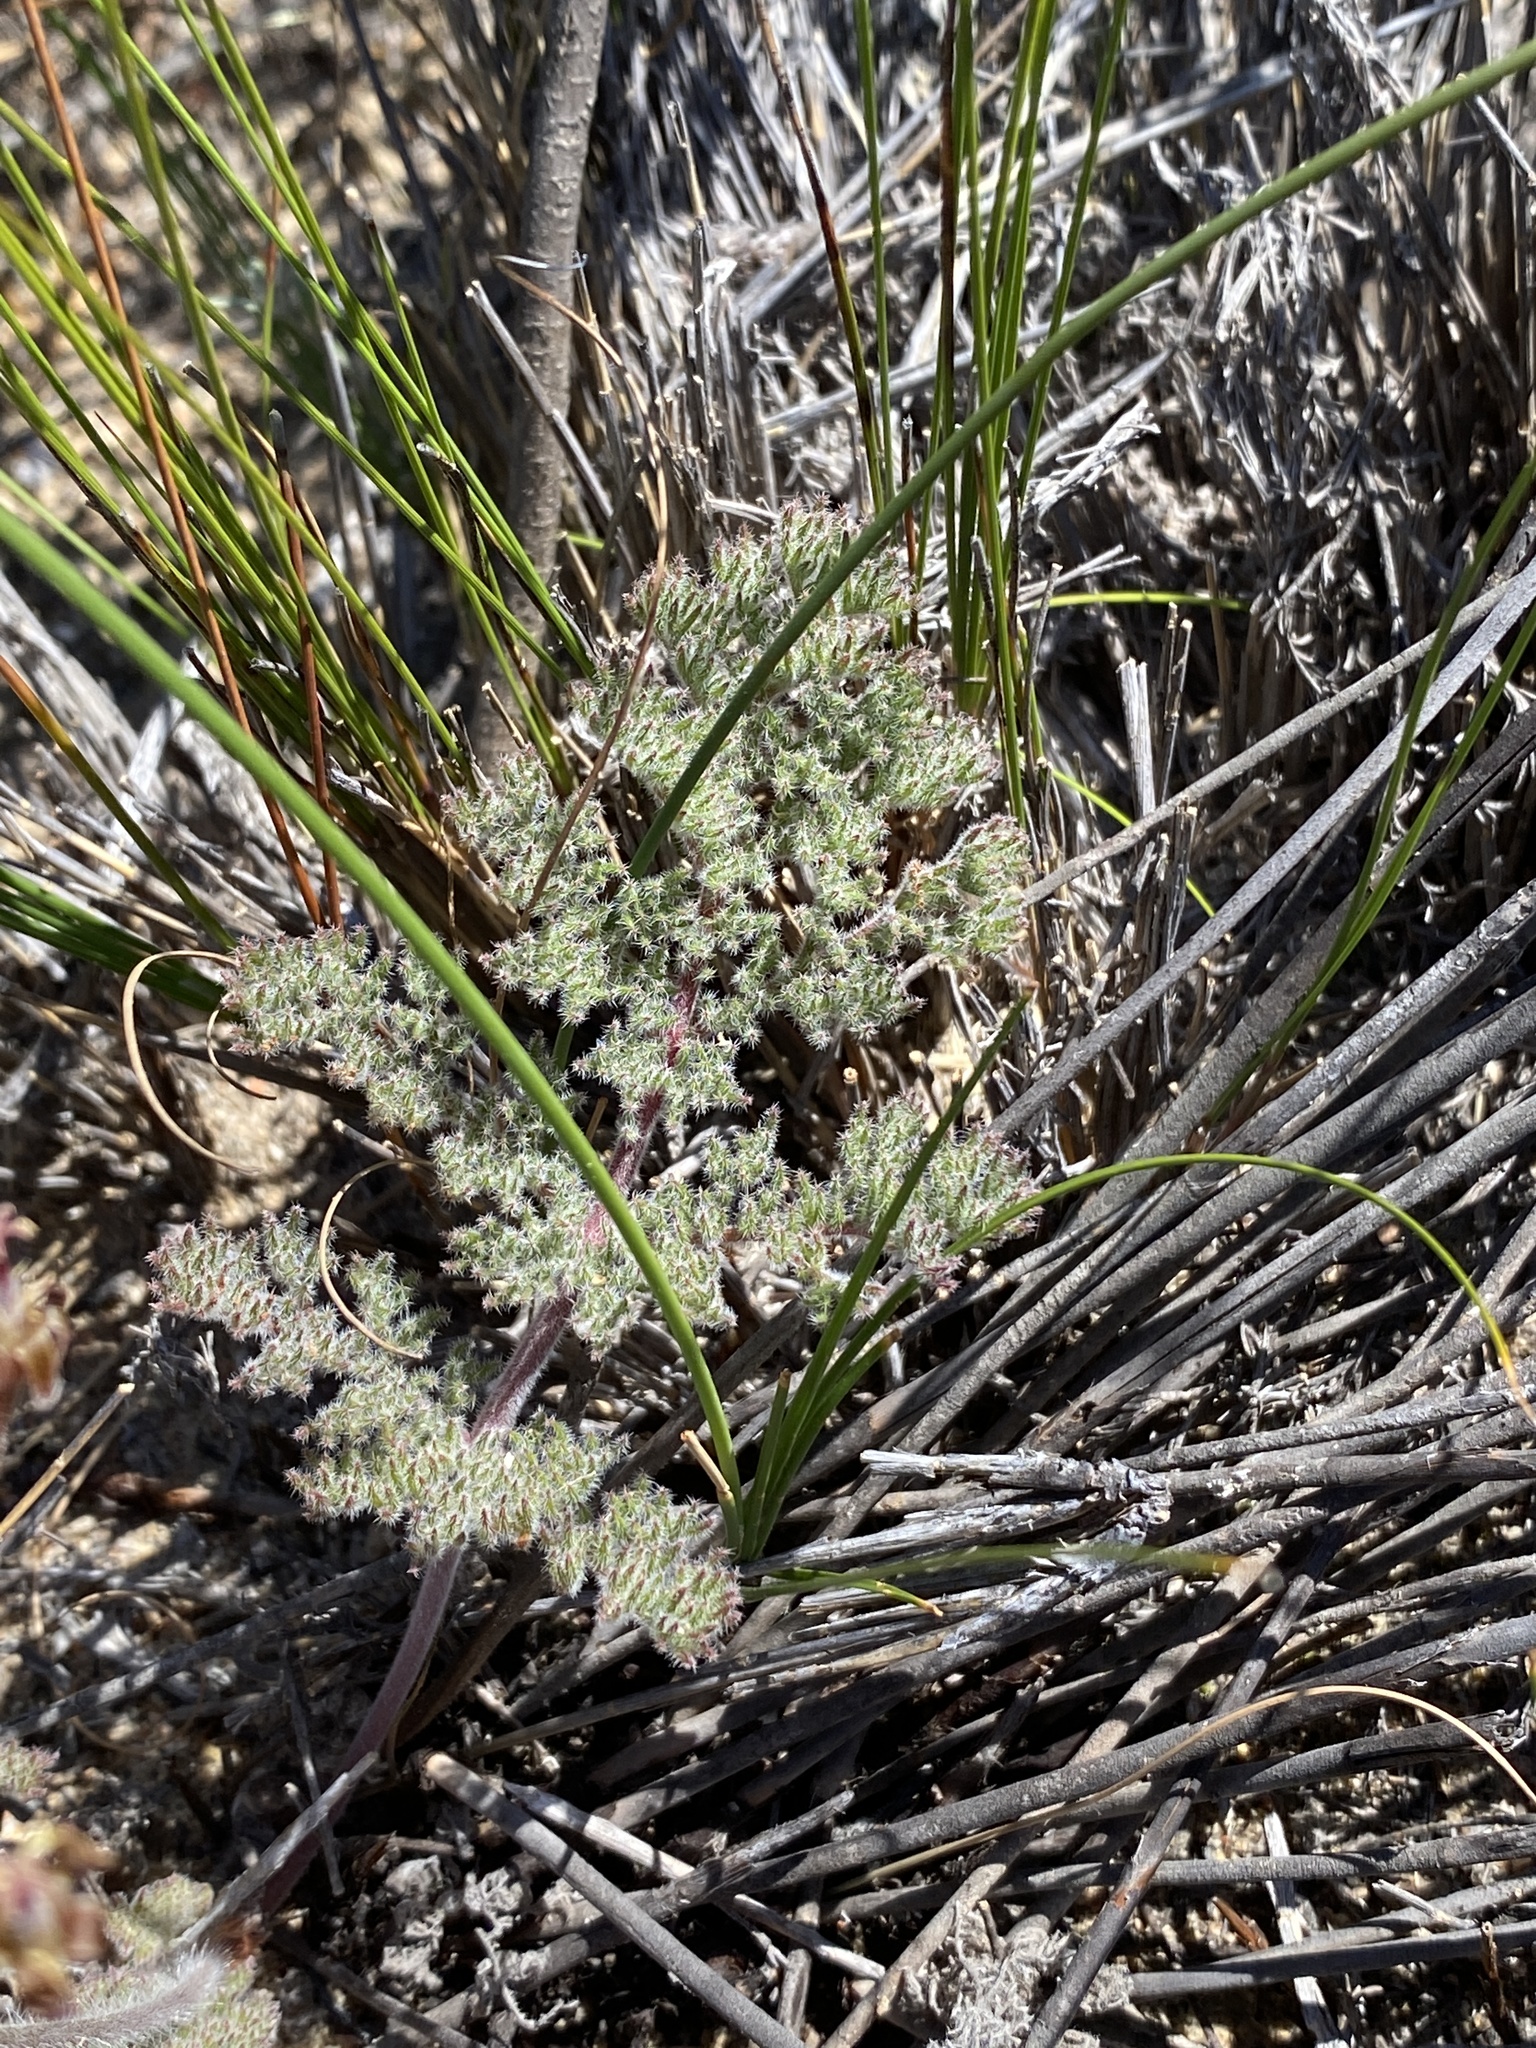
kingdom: Plantae
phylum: Tracheophyta
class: Magnoliopsida
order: Geraniales
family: Geraniaceae
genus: Pelargonium
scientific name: Pelargonium triste
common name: Night-scent pelargonium
